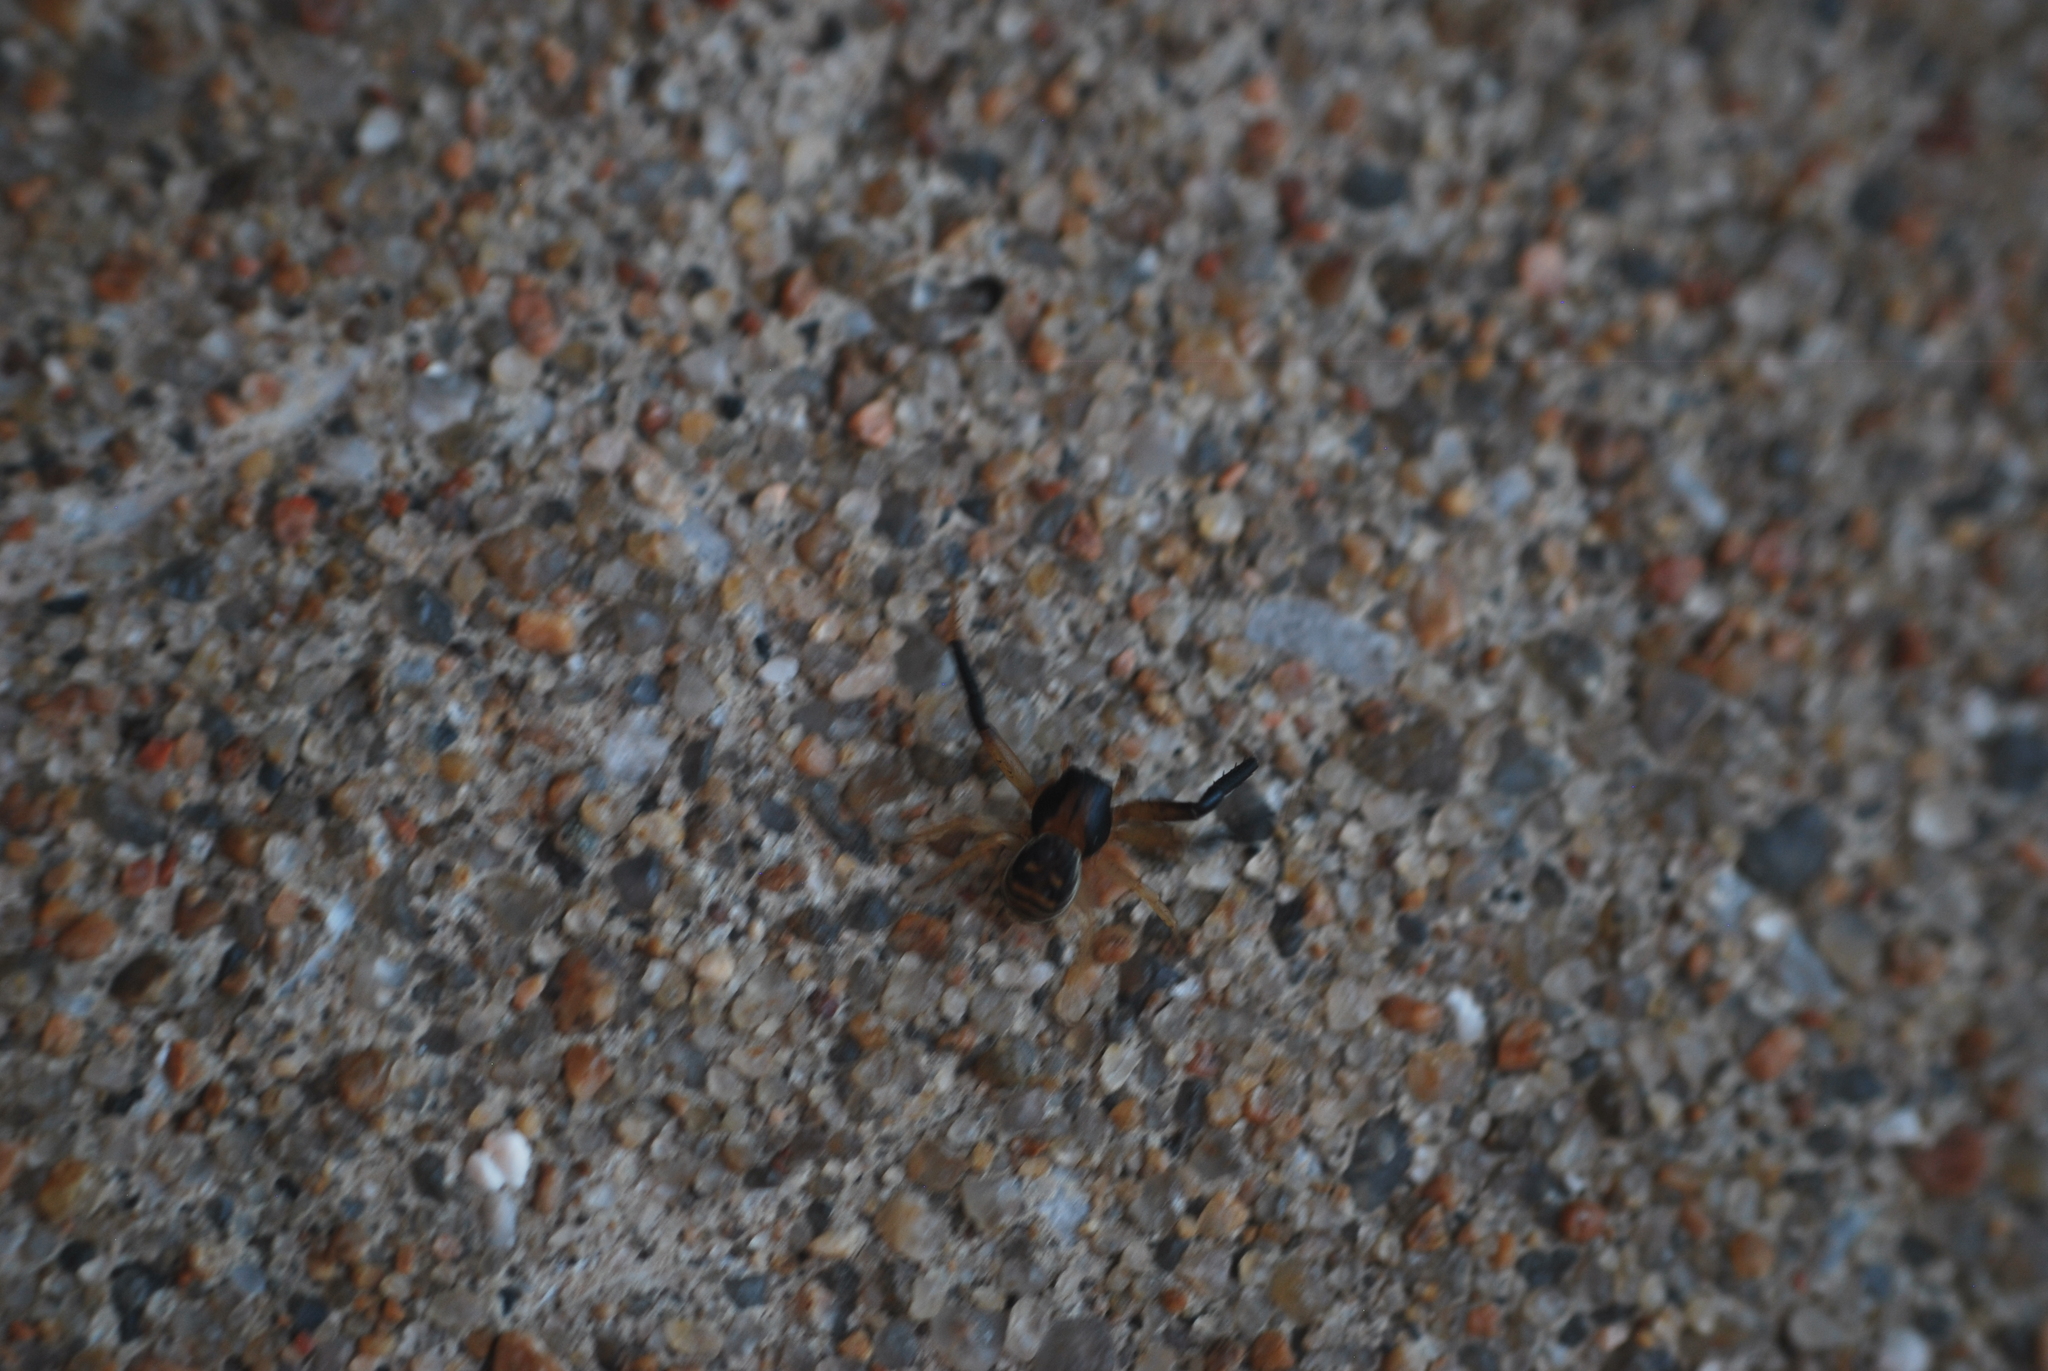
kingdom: Animalia
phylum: Arthropoda
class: Arachnida
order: Araneae
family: Thomisidae
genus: Xysticus
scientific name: Xysticus texanus
